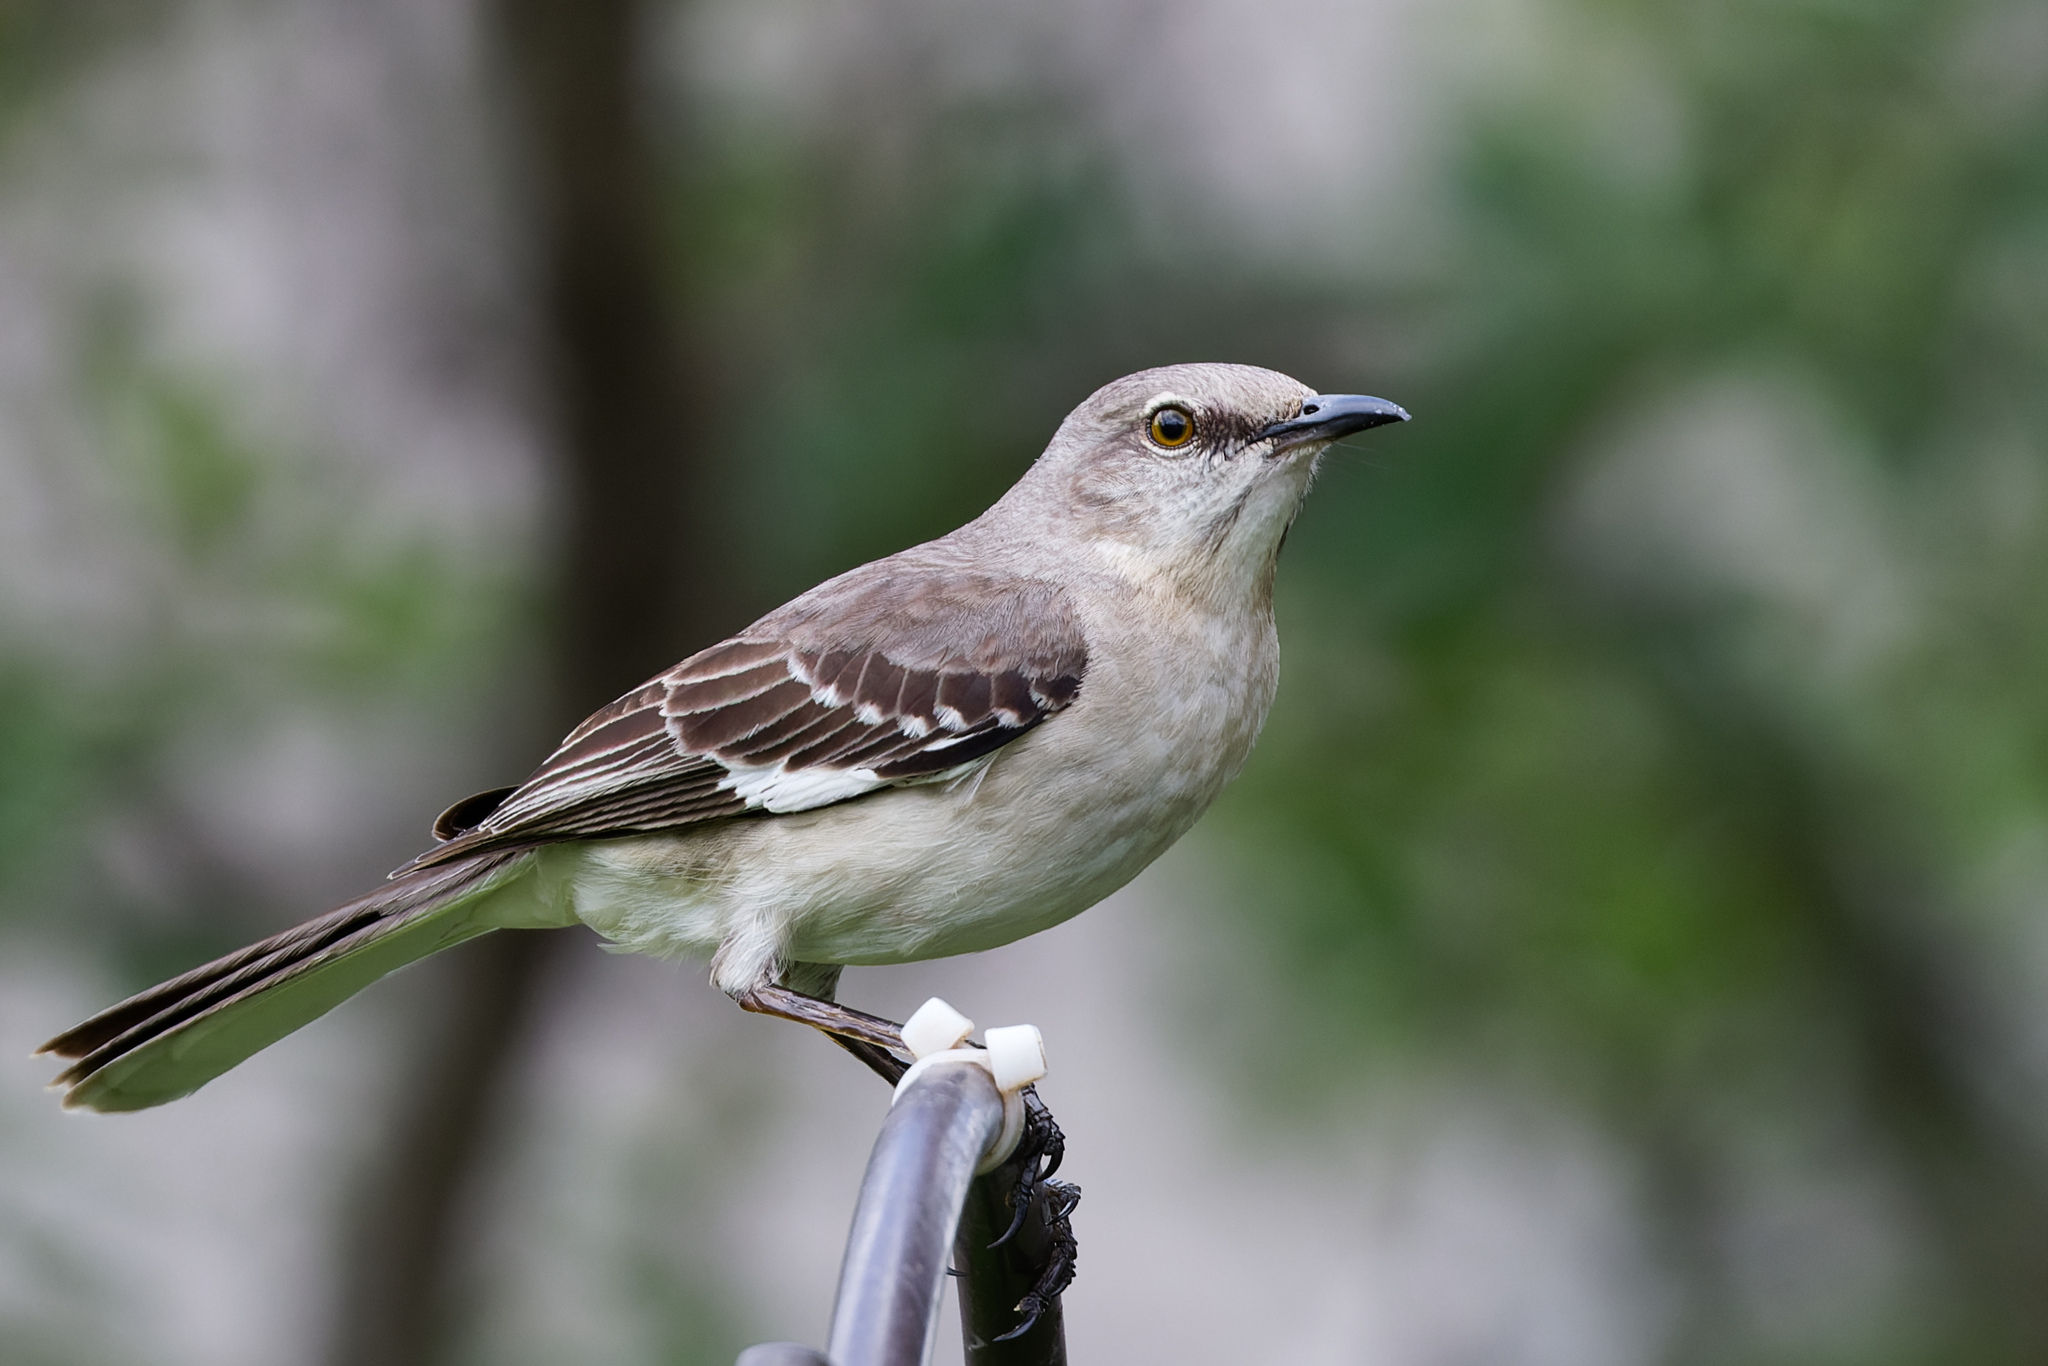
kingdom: Animalia
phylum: Chordata
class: Aves
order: Passeriformes
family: Mimidae
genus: Mimus
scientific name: Mimus polyglottos
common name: Northern mockingbird
